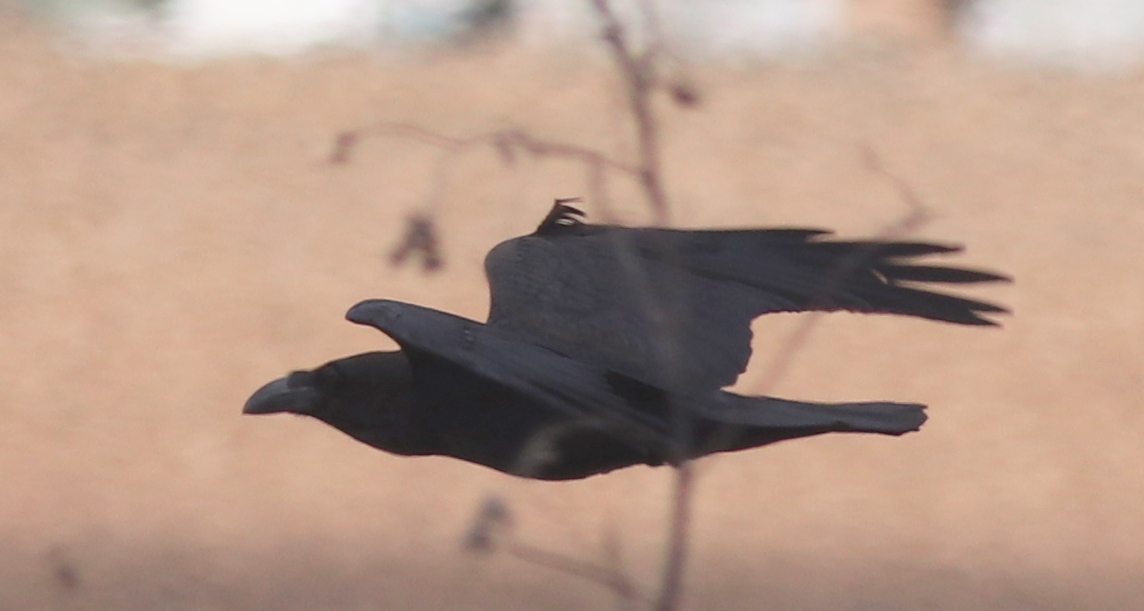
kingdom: Animalia
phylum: Chordata
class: Aves
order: Passeriformes
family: Corvidae
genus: Corvus
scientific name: Corvus corax
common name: Common raven
